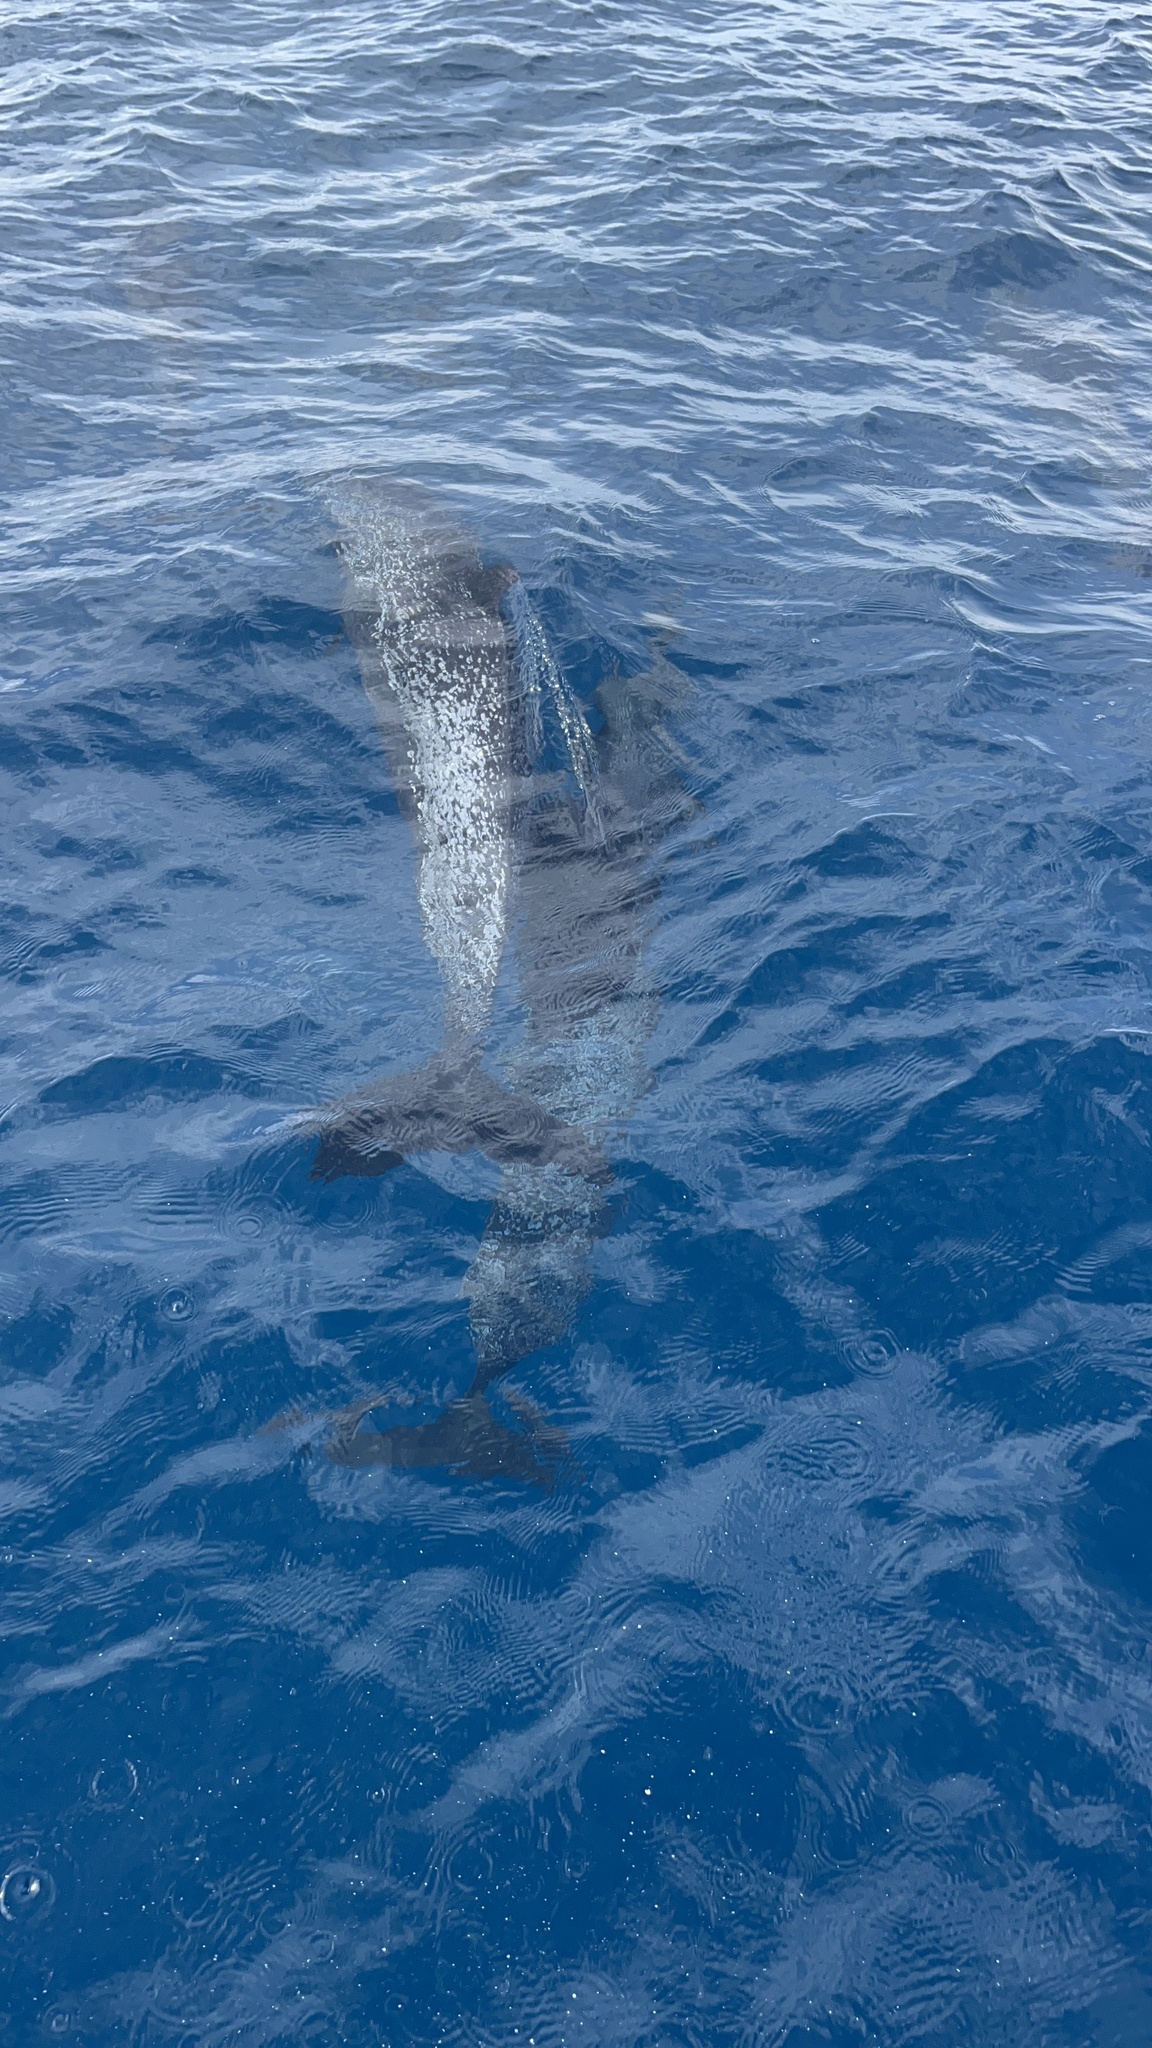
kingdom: Animalia
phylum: Chordata
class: Mammalia
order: Cetacea
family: Delphinidae
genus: Stenella
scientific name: Stenella attenuata
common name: Pantropical spotted dolphin
